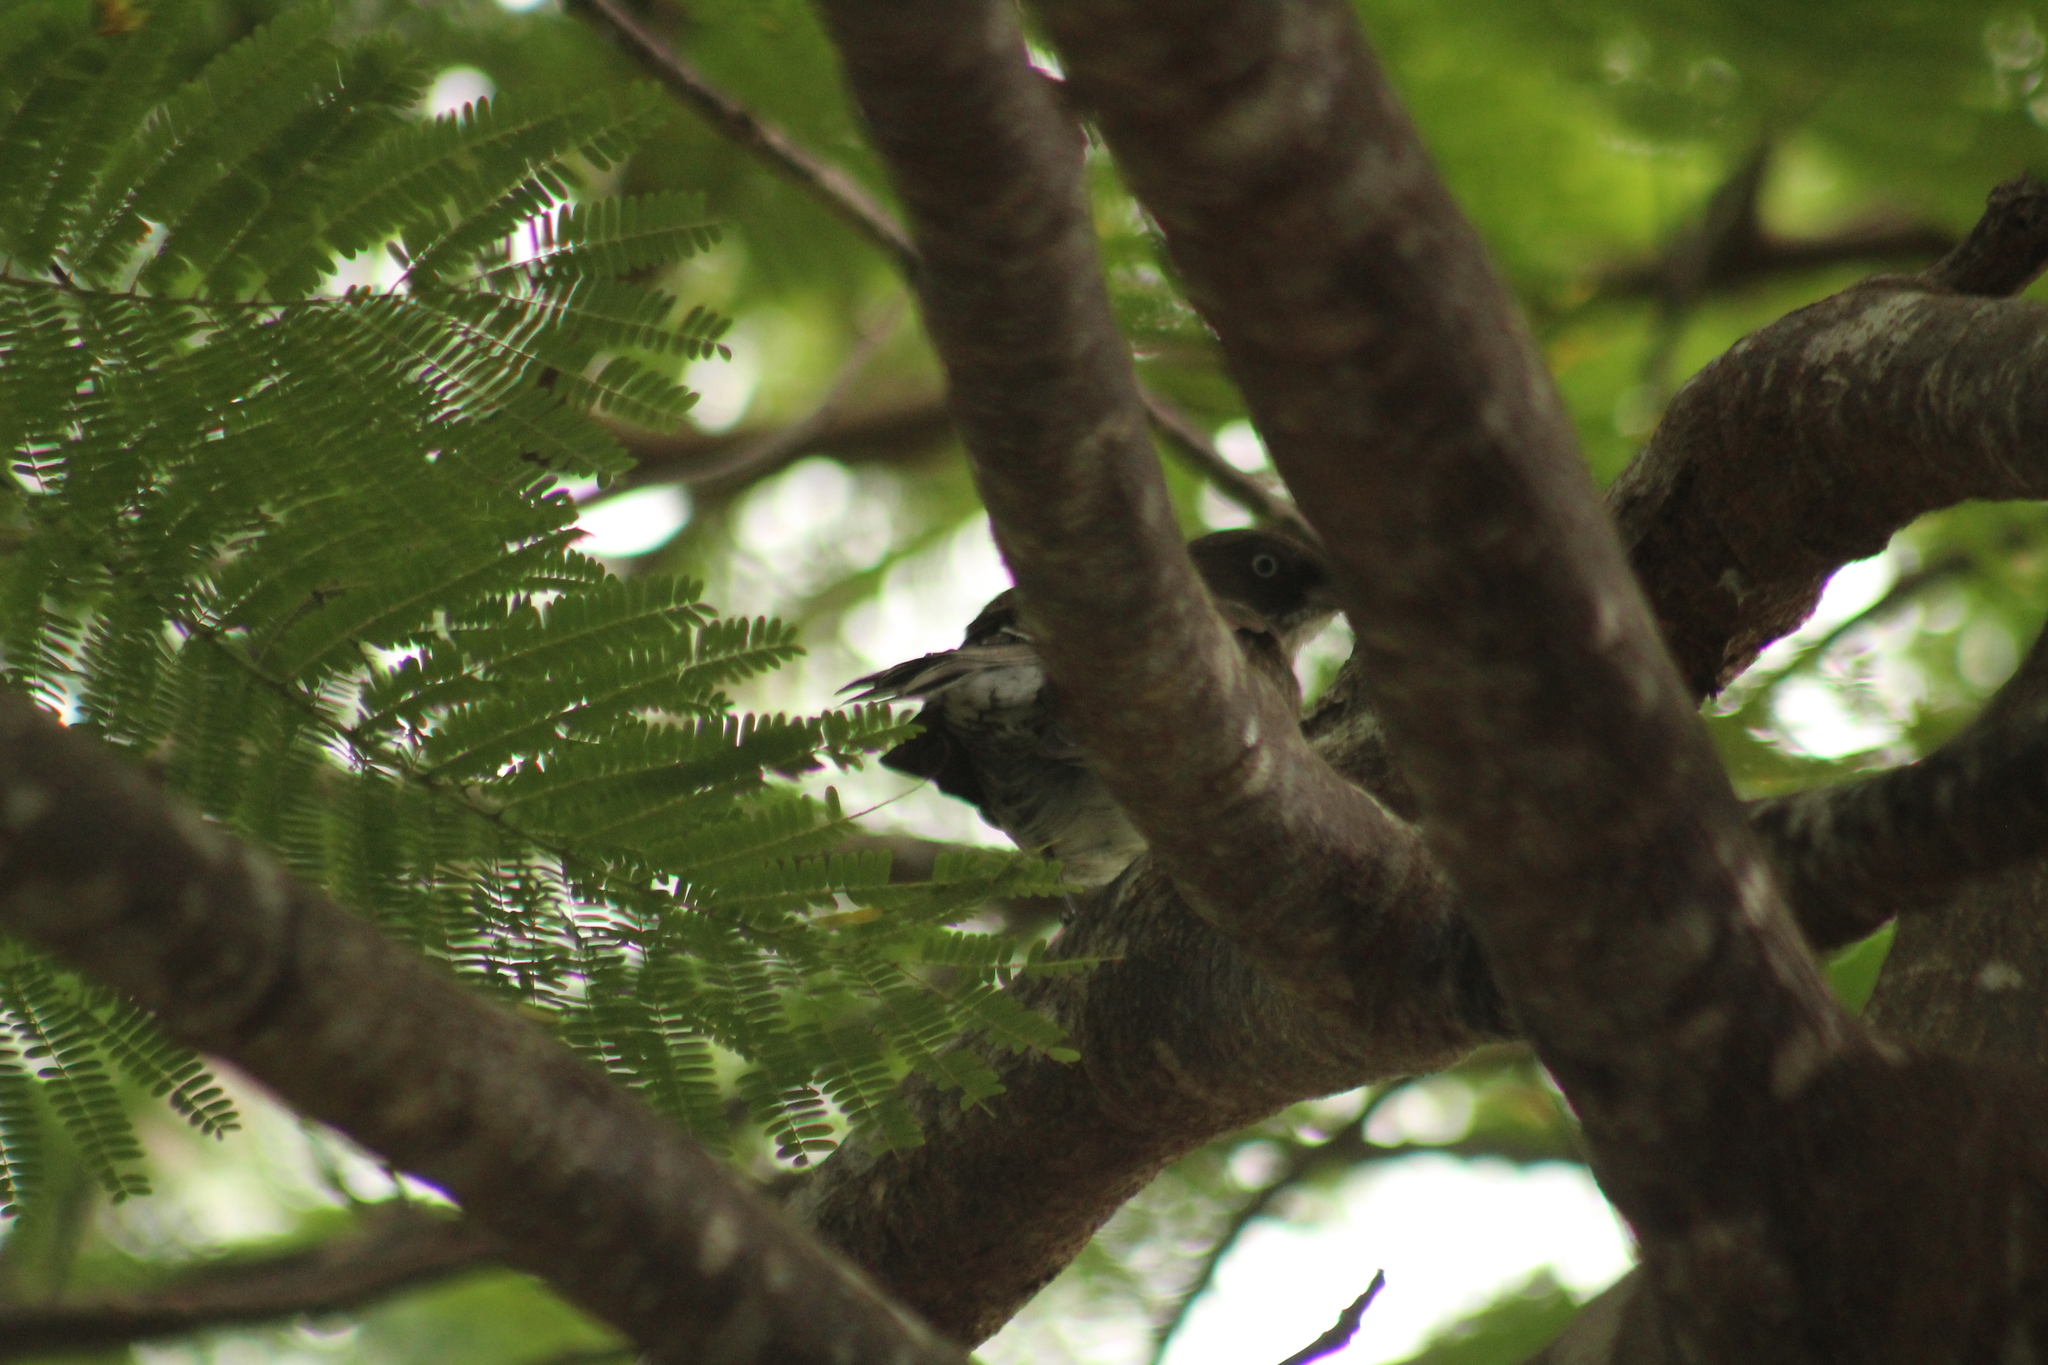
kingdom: Animalia
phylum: Chordata
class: Aves
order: Passeriformes
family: Mimidae
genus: Margarops
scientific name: Margarops fuscatus
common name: Pearly-eyed thrasher
